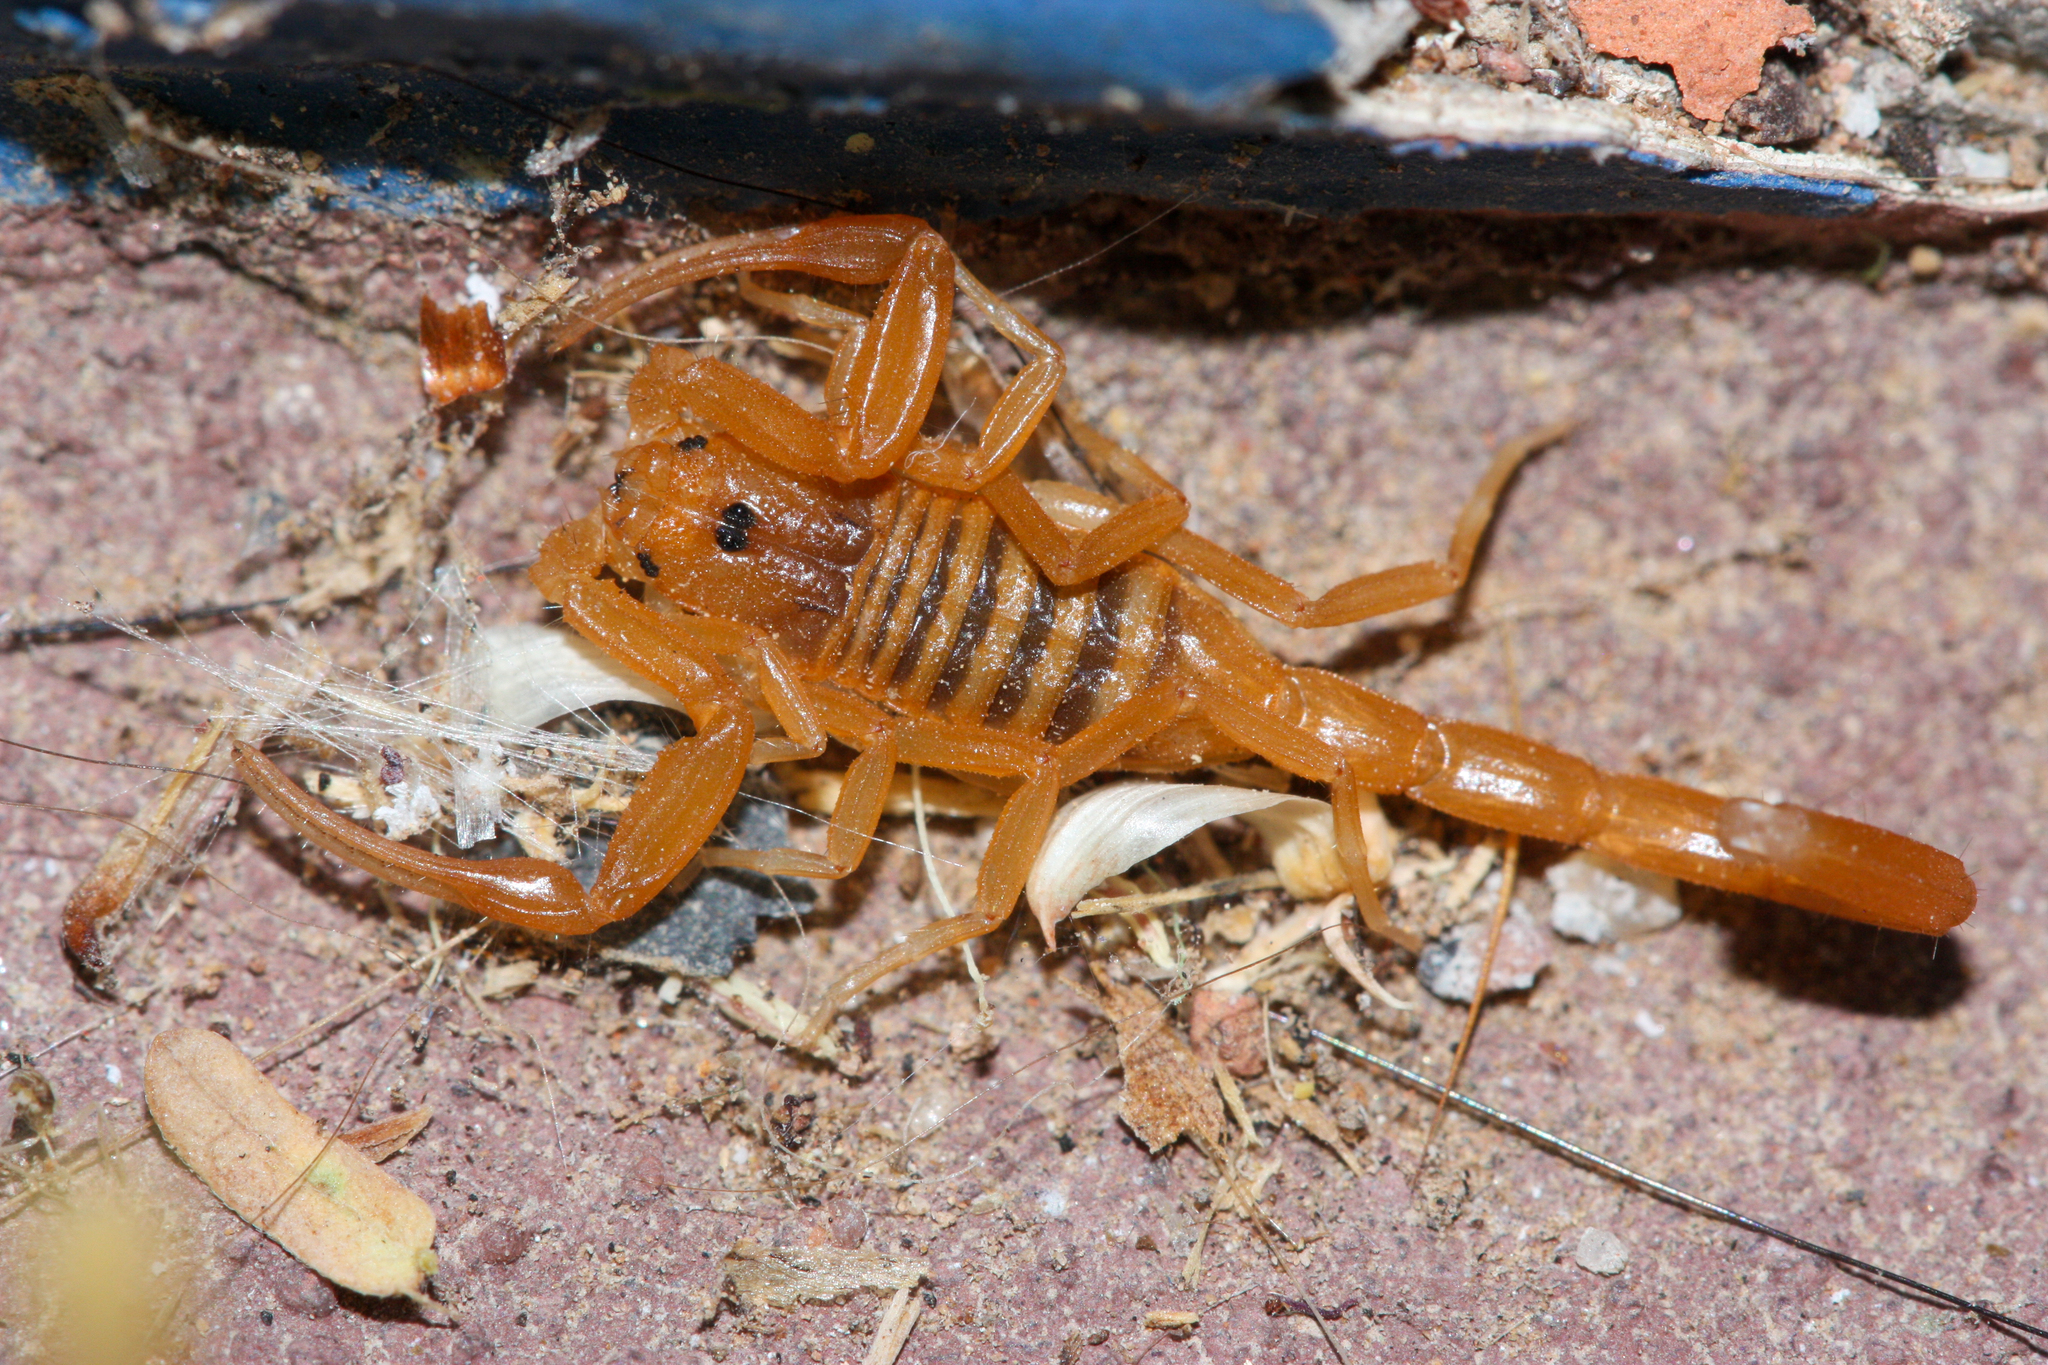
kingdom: Animalia
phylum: Arthropoda
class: Arachnida
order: Scorpiones
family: Buthidae
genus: Centruroides
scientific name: Centruroides sculpturatus
